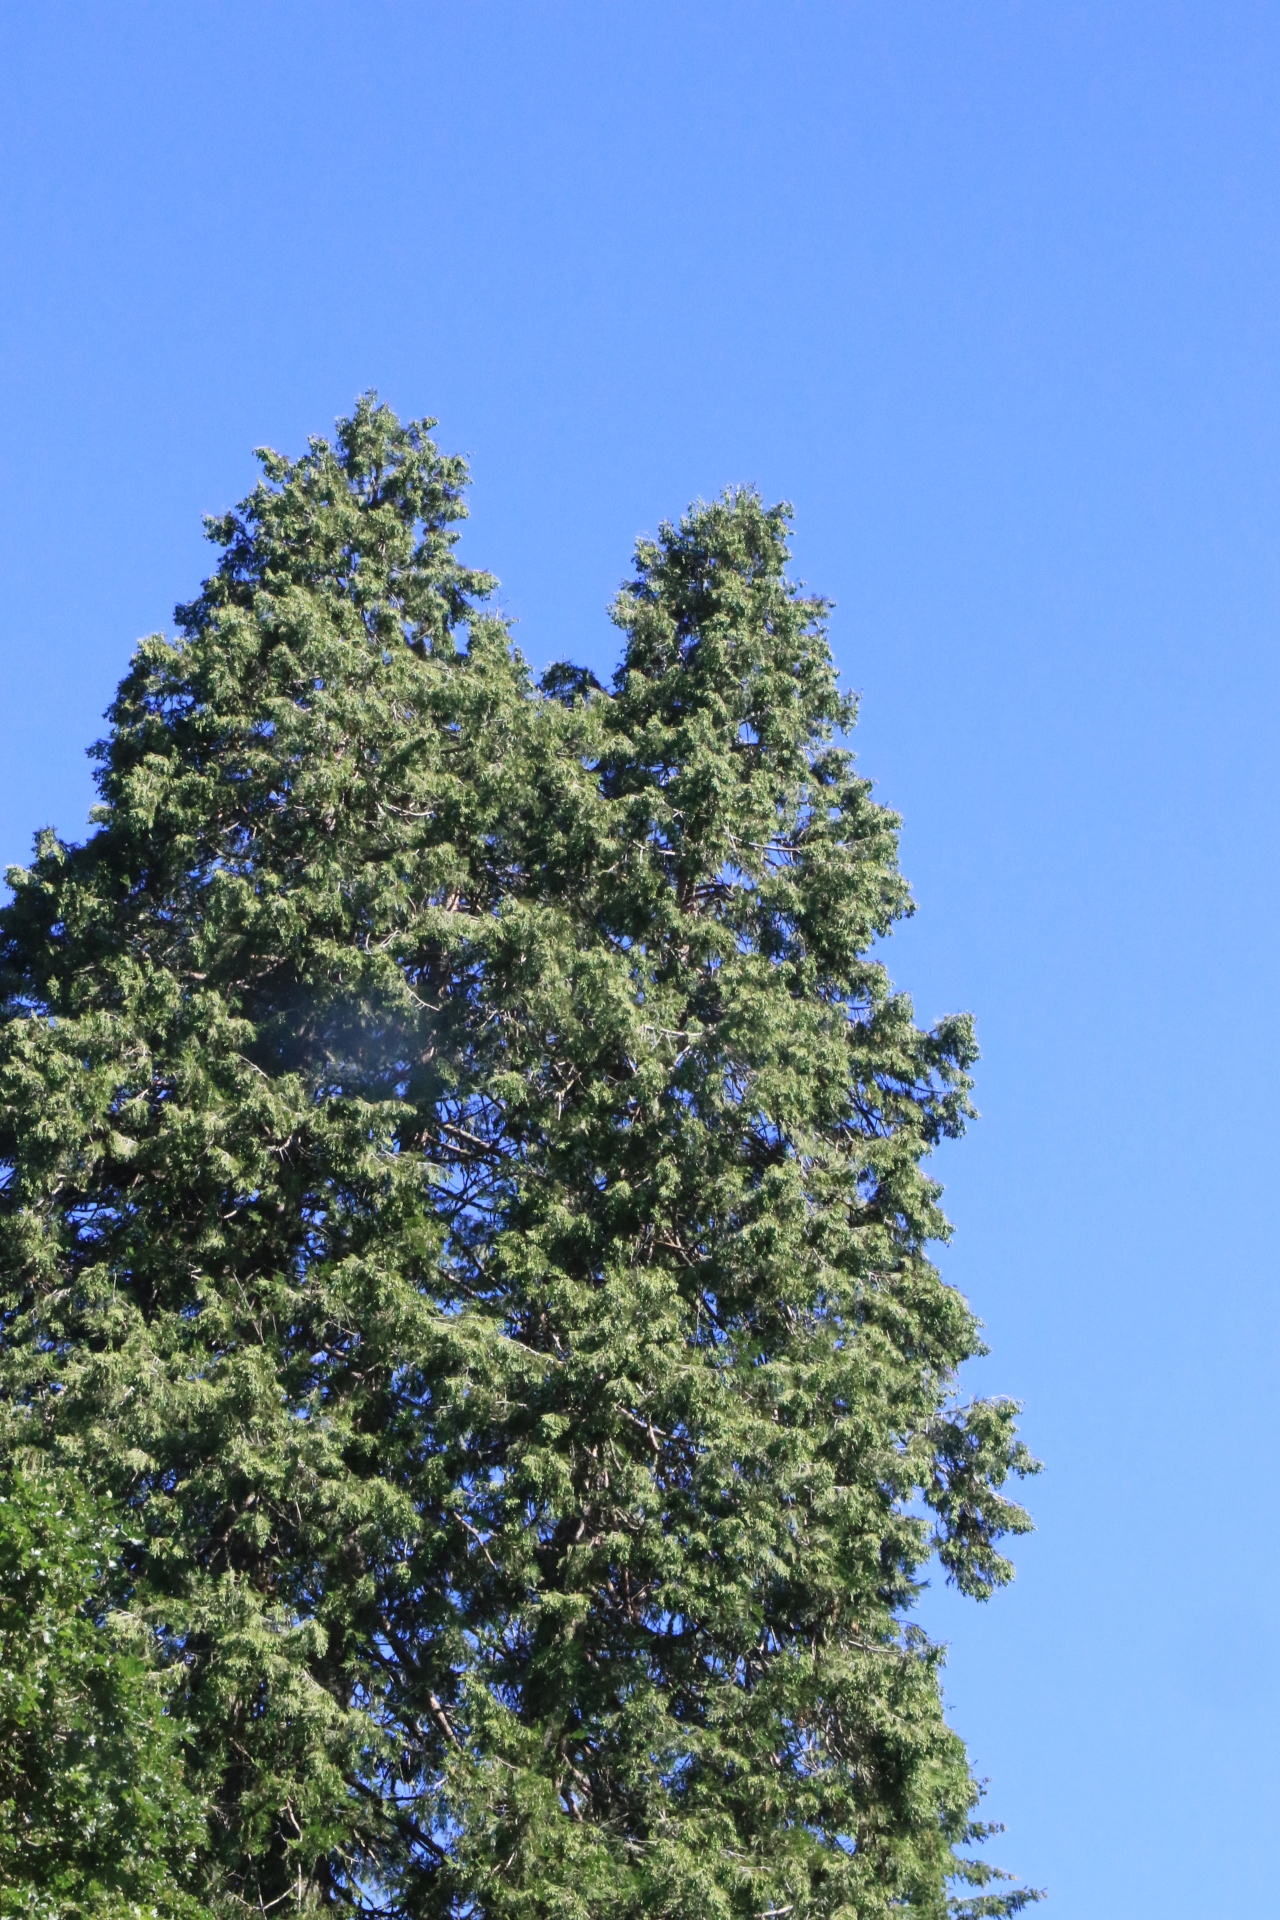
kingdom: Plantae
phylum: Tracheophyta
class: Pinopsida
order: Pinales
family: Cupressaceae
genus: Calocedrus
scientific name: Calocedrus decurrens
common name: Californian incense-cedar
